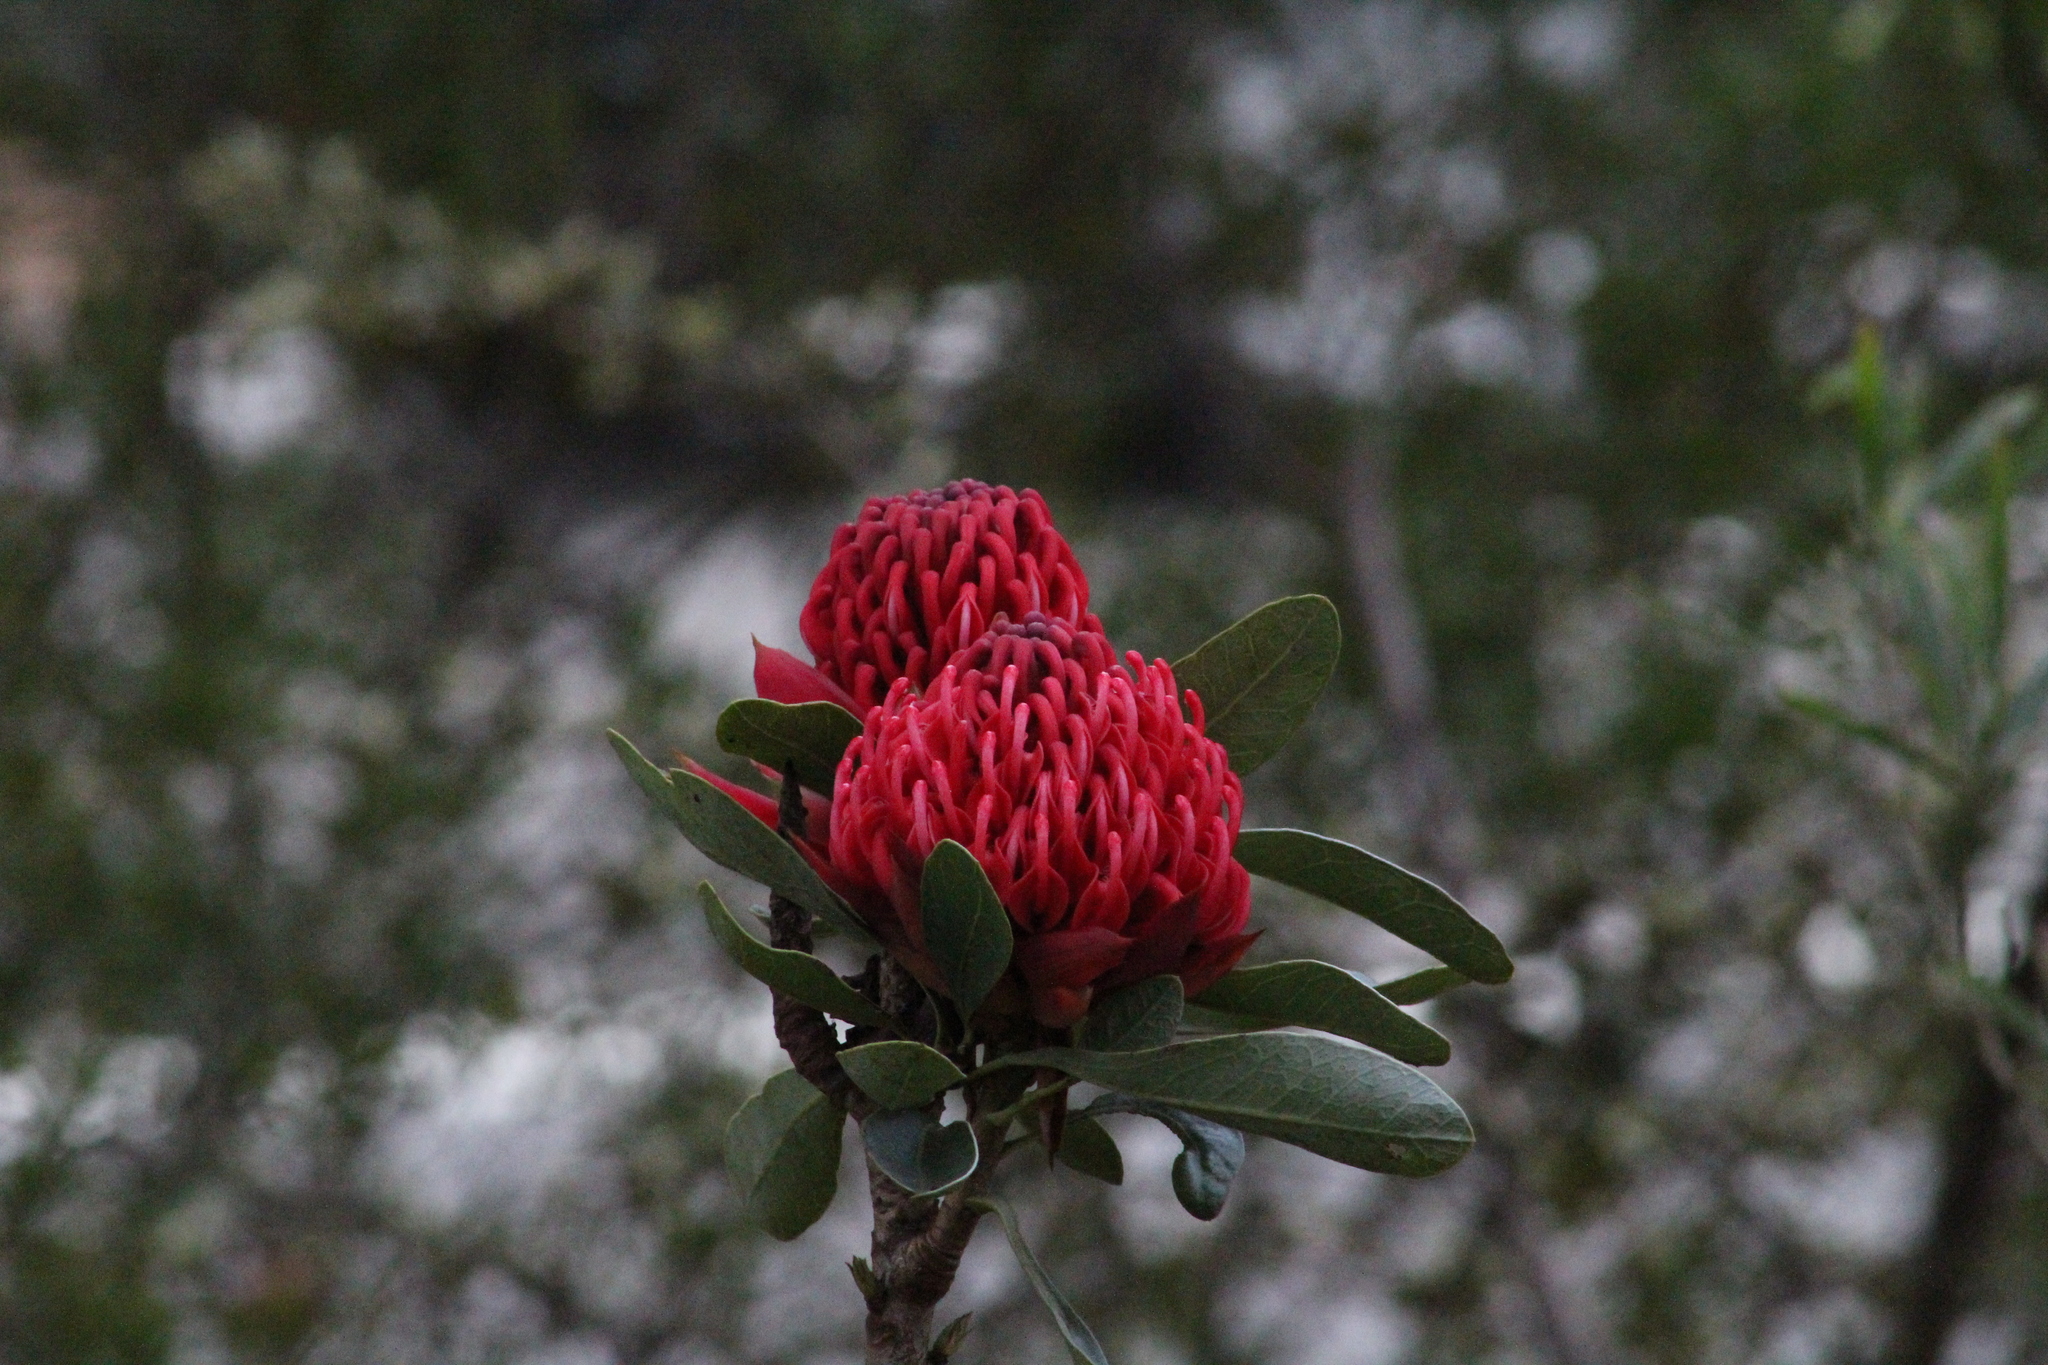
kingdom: Plantae
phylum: Tracheophyta
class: Magnoliopsida
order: Proteales
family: Proteaceae
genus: Telopea
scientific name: Telopea speciosissima
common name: New south wales waratah
